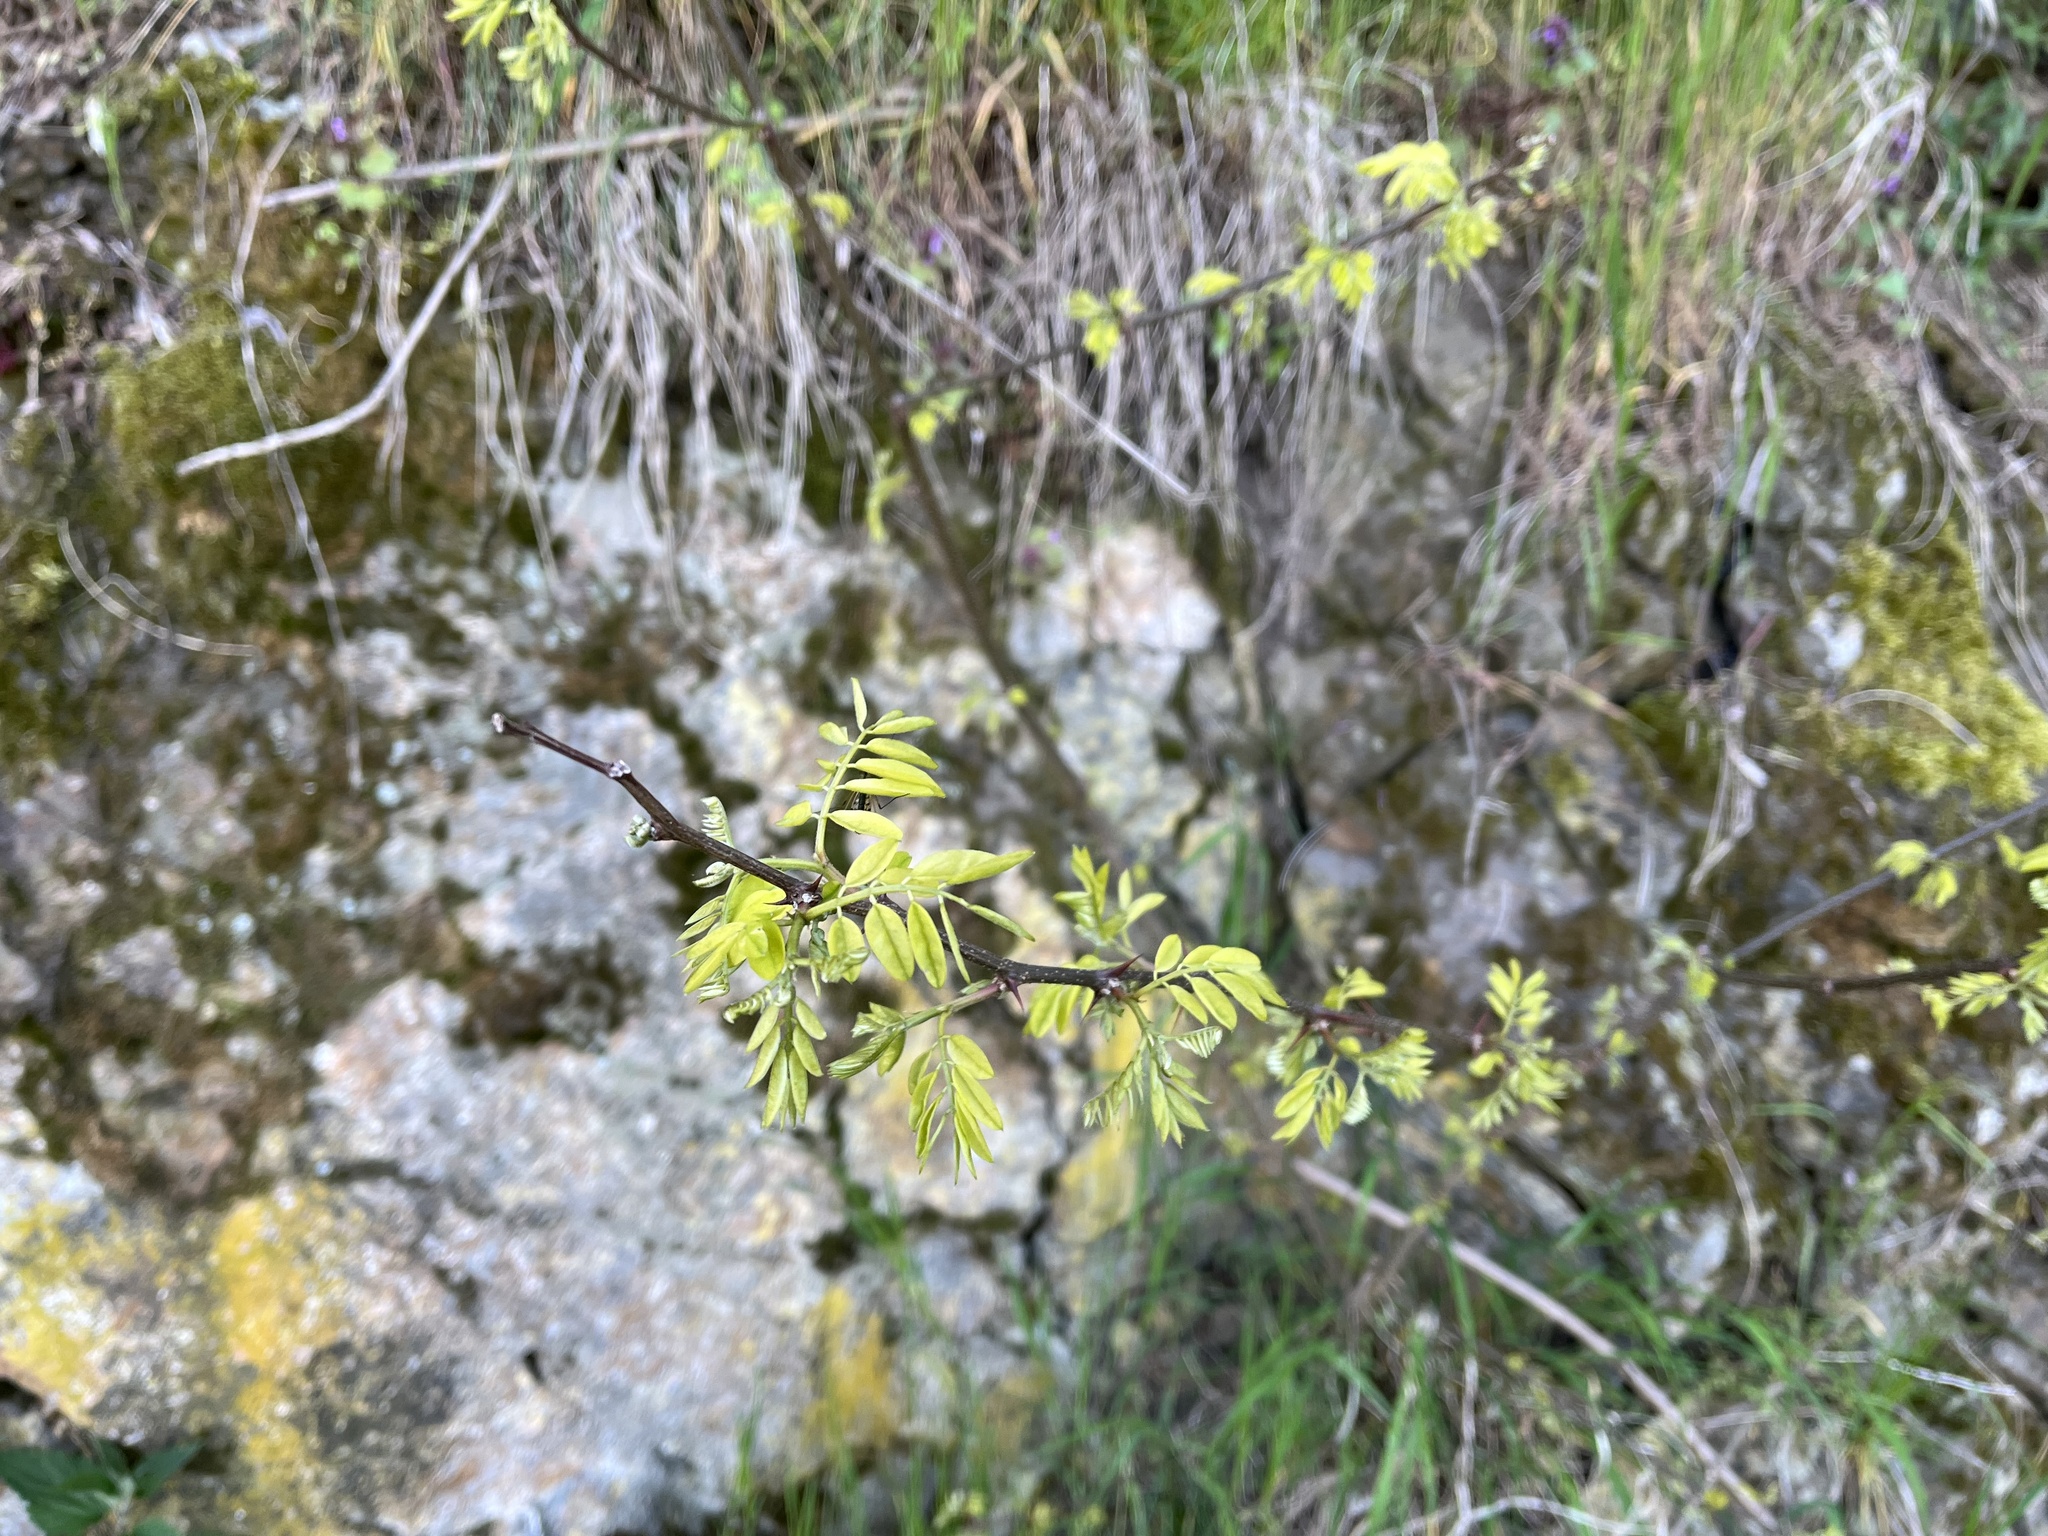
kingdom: Plantae
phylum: Tracheophyta
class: Magnoliopsida
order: Fabales
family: Fabaceae
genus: Robinia
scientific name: Robinia pseudoacacia
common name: Black locust
